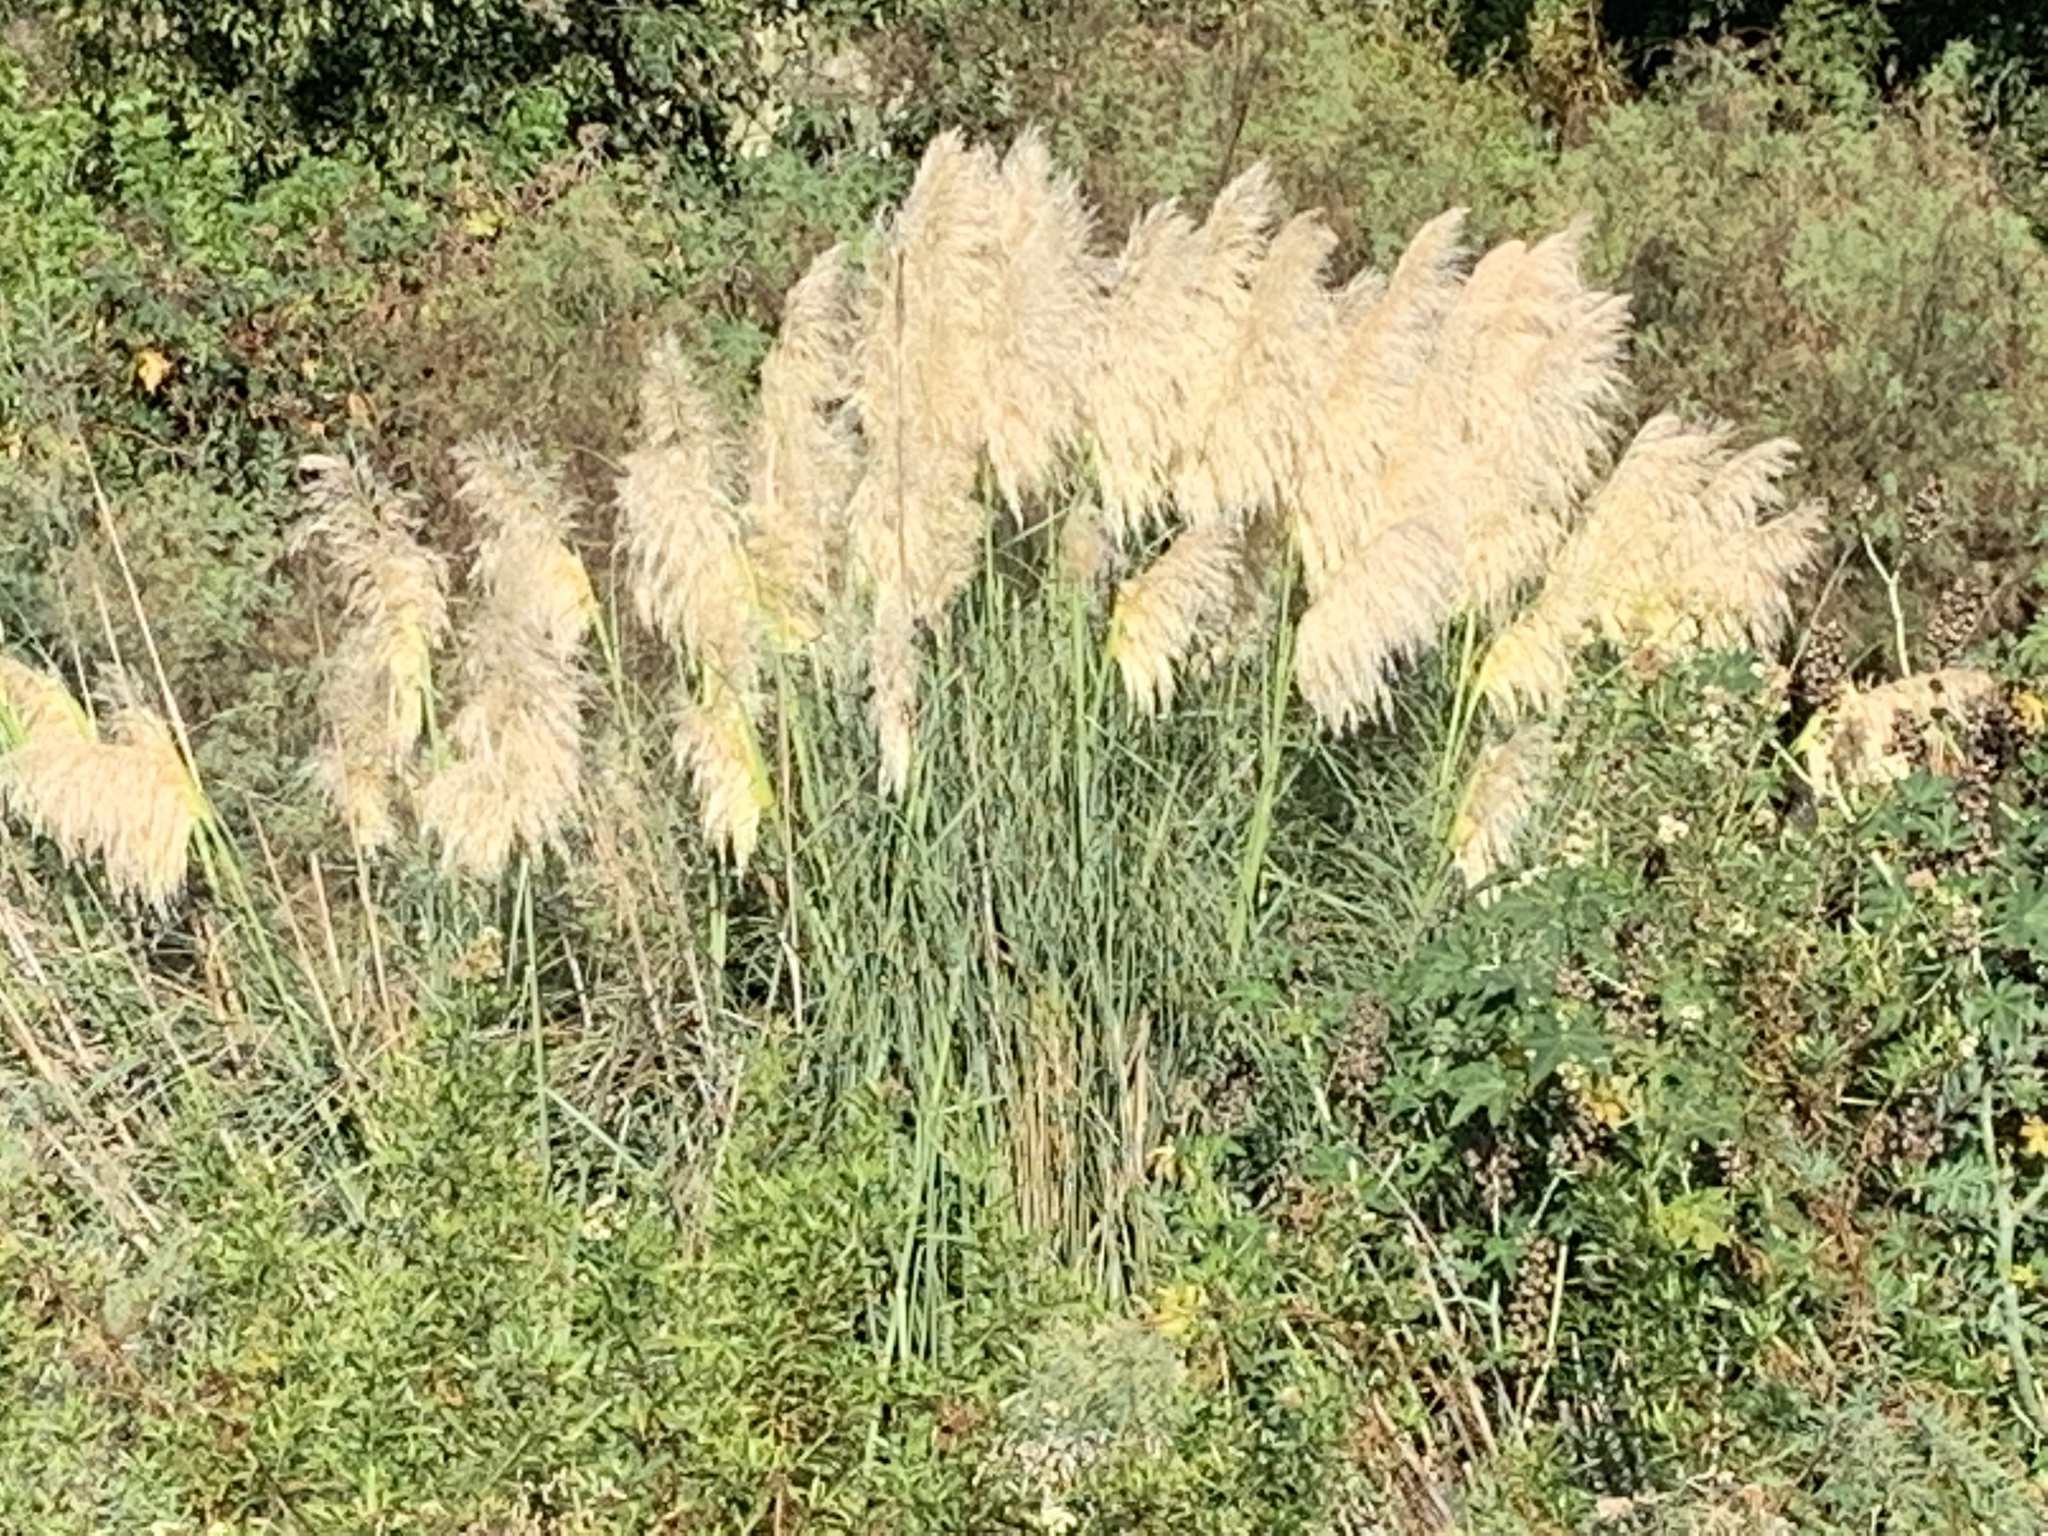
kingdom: Plantae
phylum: Tracheophyta
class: Liliopsida
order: Poales
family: Poaceae
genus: Cortaderia
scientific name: Cortaderia selloana
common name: Uruguayan pampas grass
